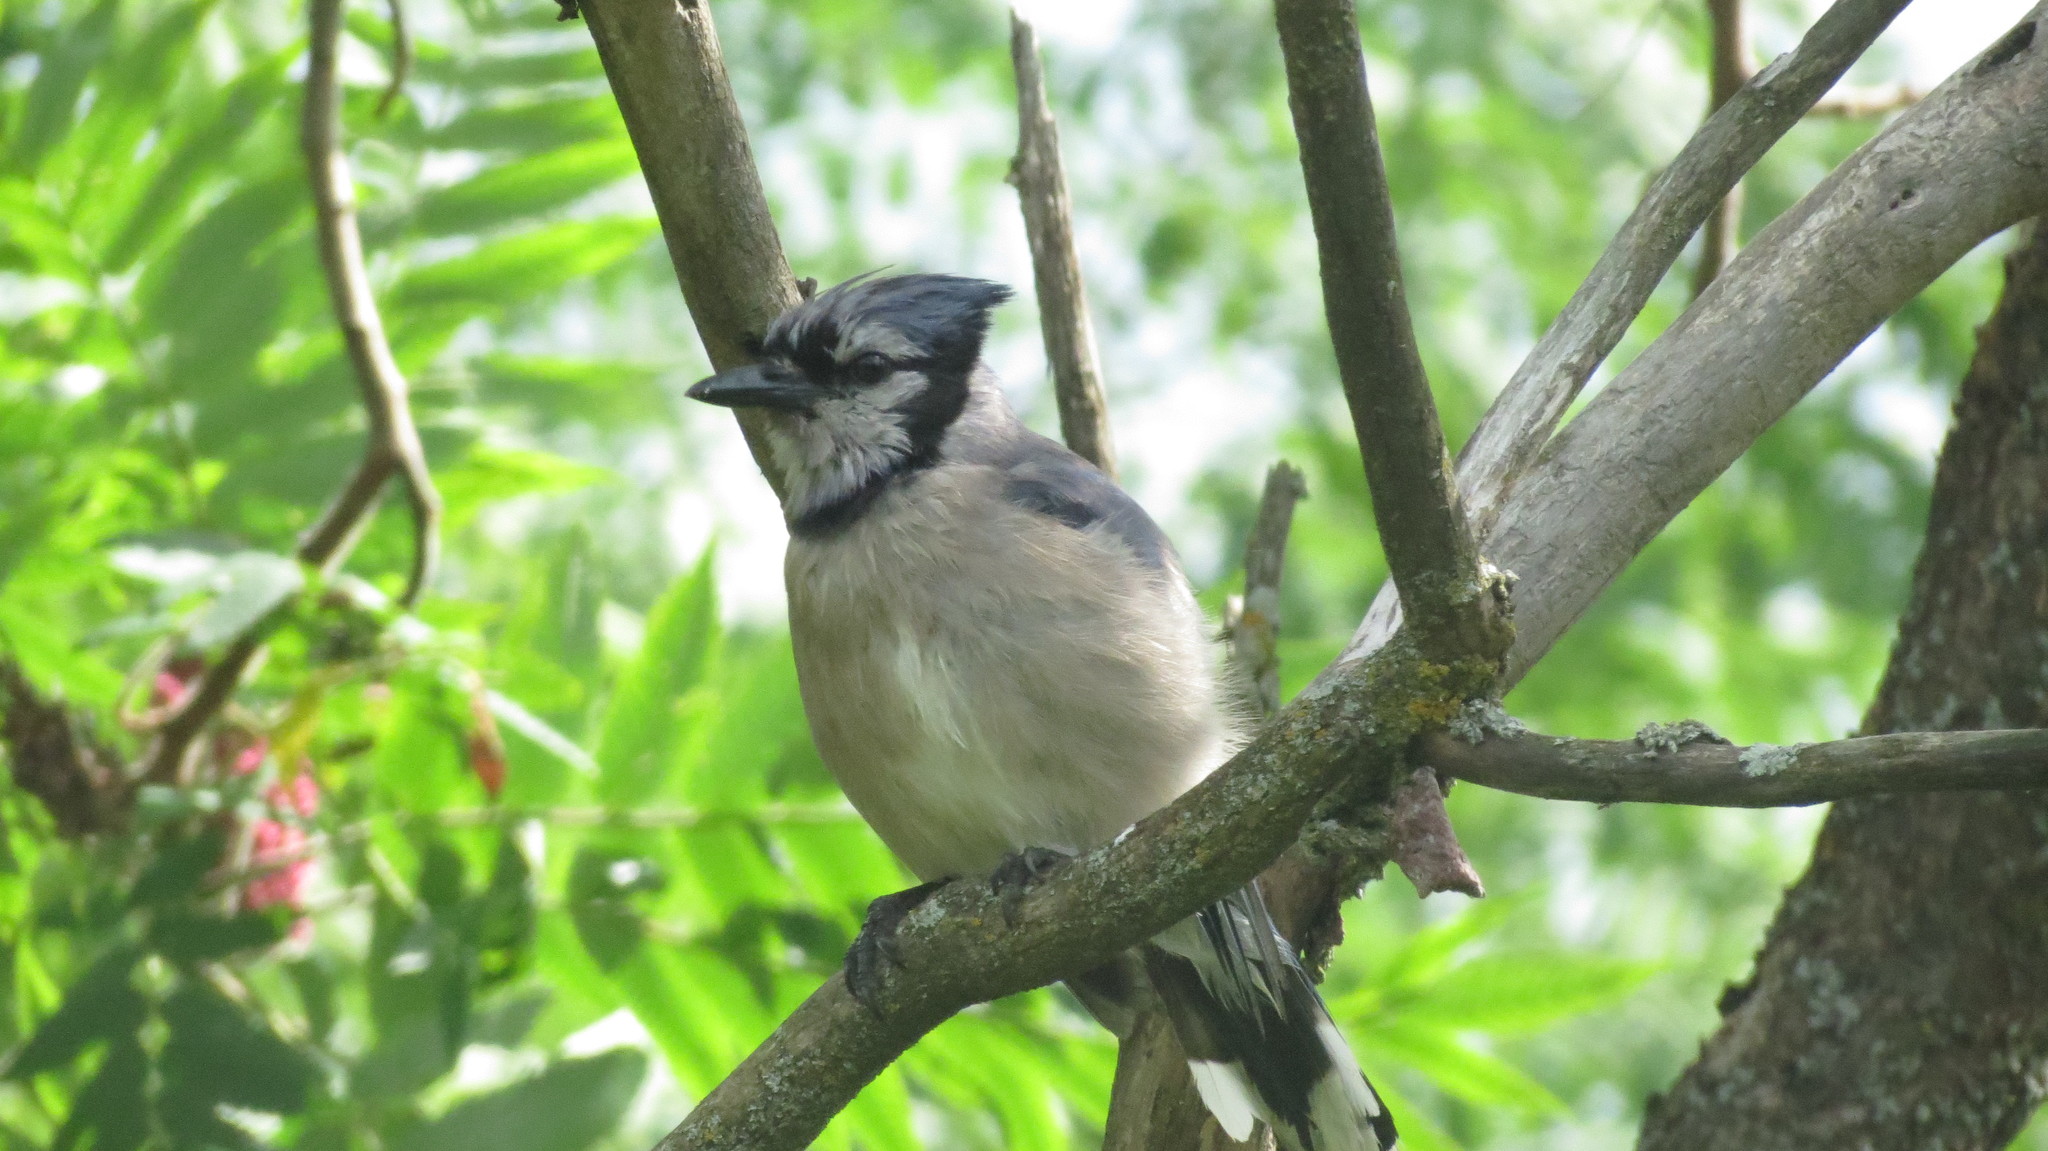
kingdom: Animalia
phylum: Chordata
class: Aves
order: Passeriformes
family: Corvidae
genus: Cyanocitta
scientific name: Cyanocitta cristata
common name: Blue jay
